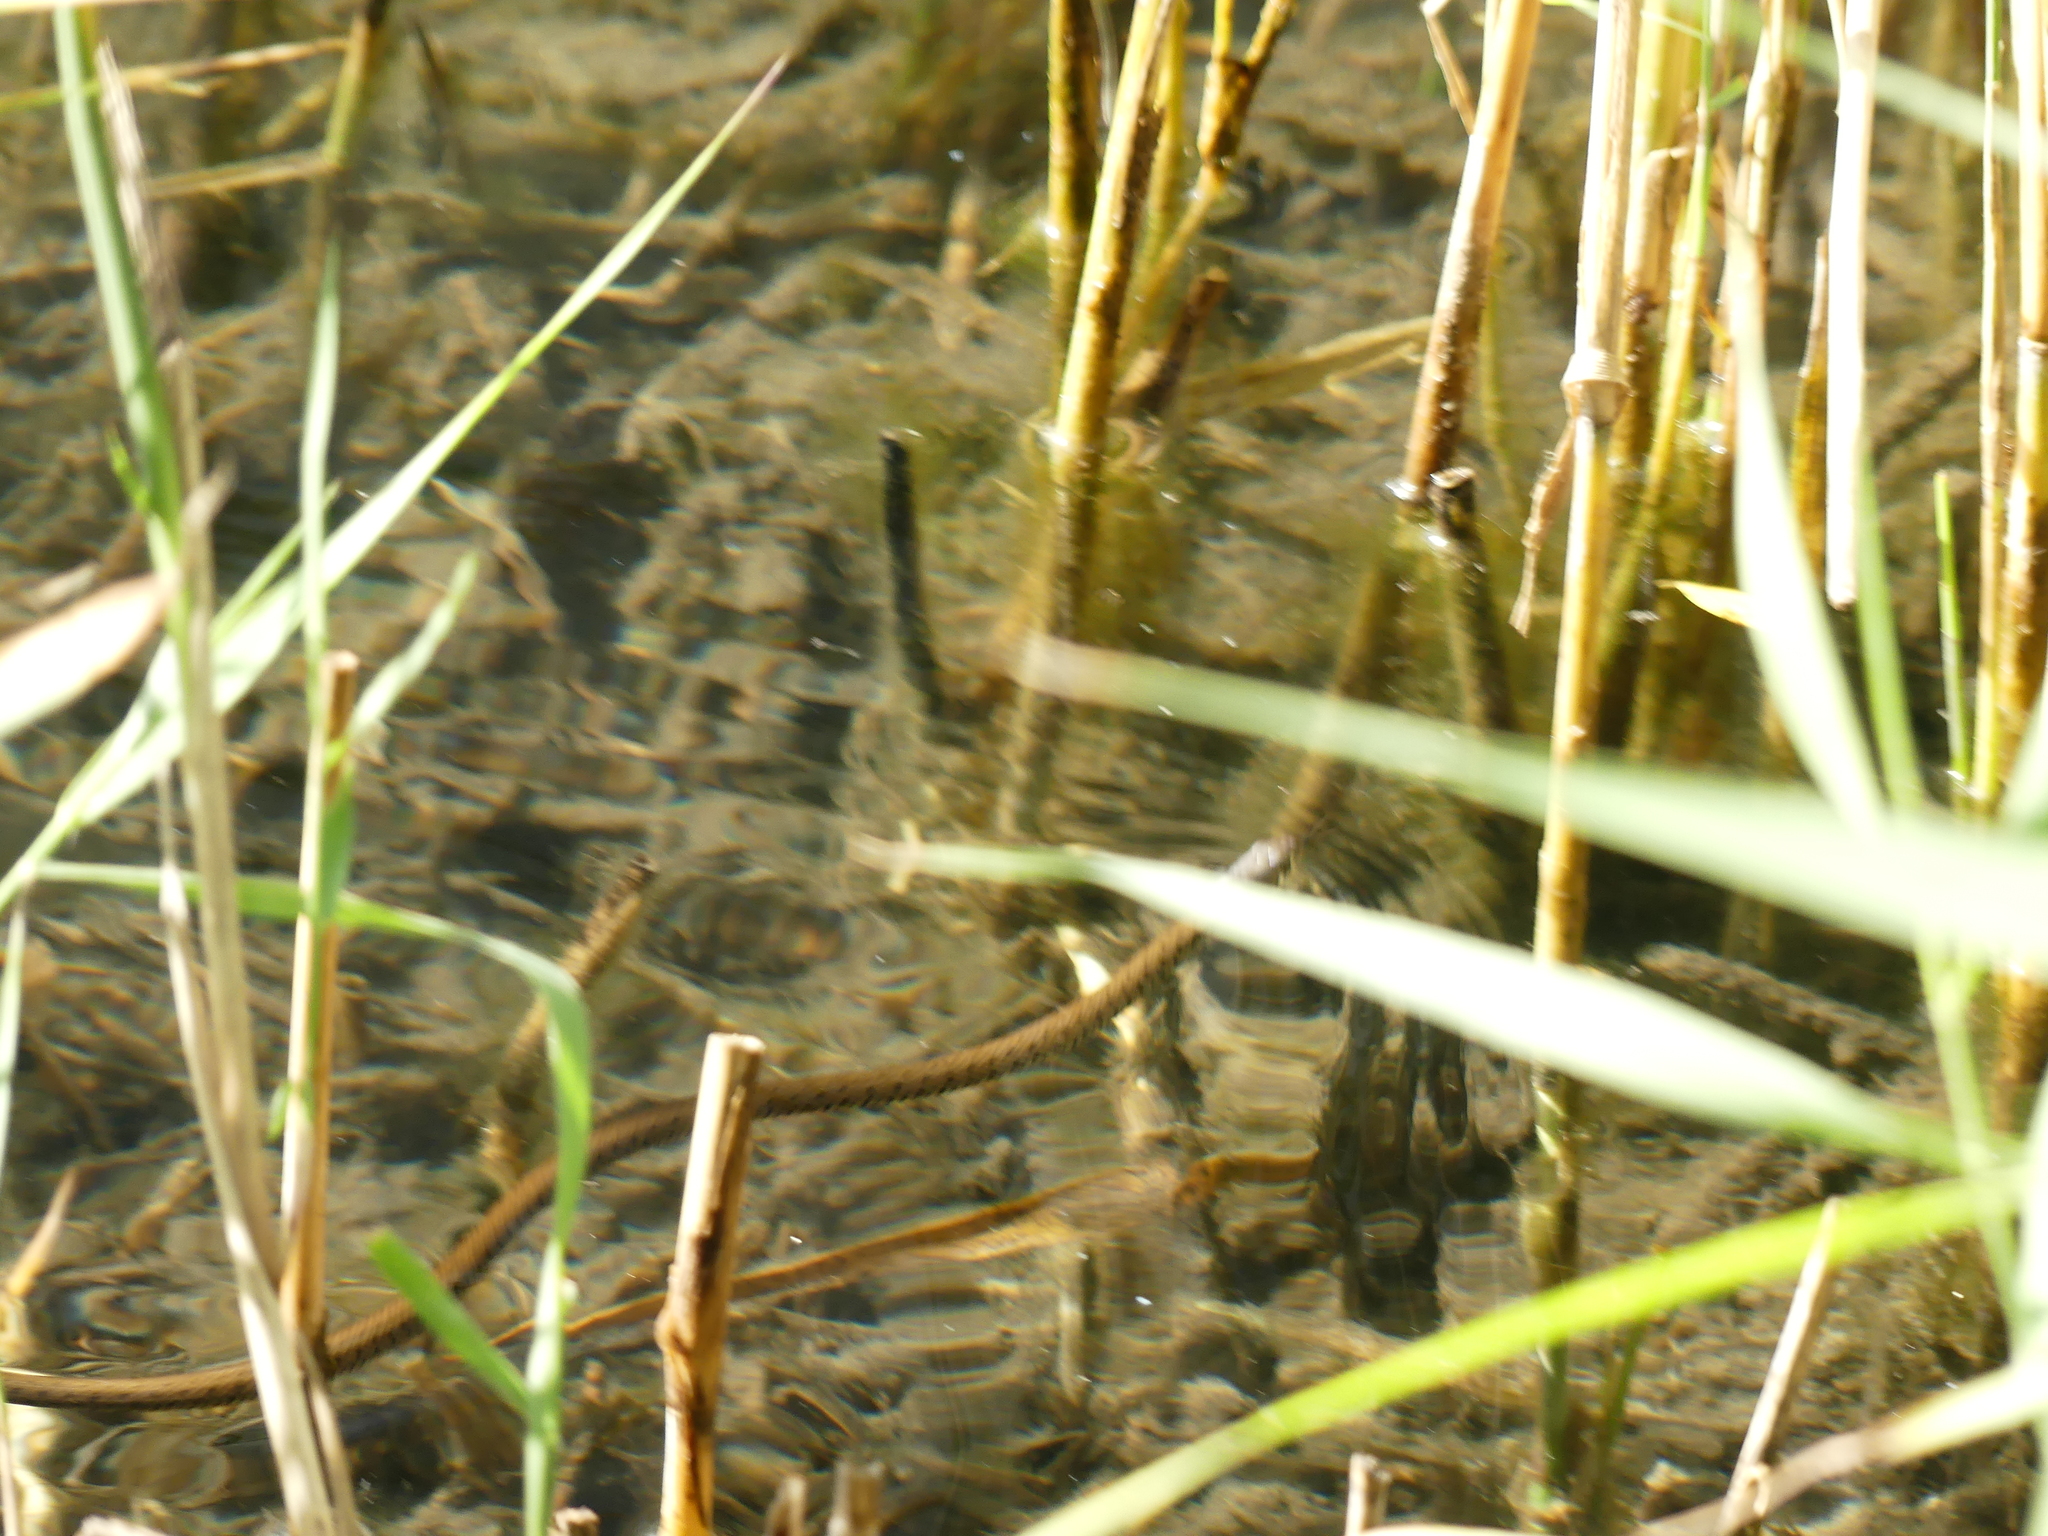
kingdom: Animalia
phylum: Chordata
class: Squamata
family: Colubridae
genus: Natrix
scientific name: Natrix helvetica
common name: Banded grass snake
